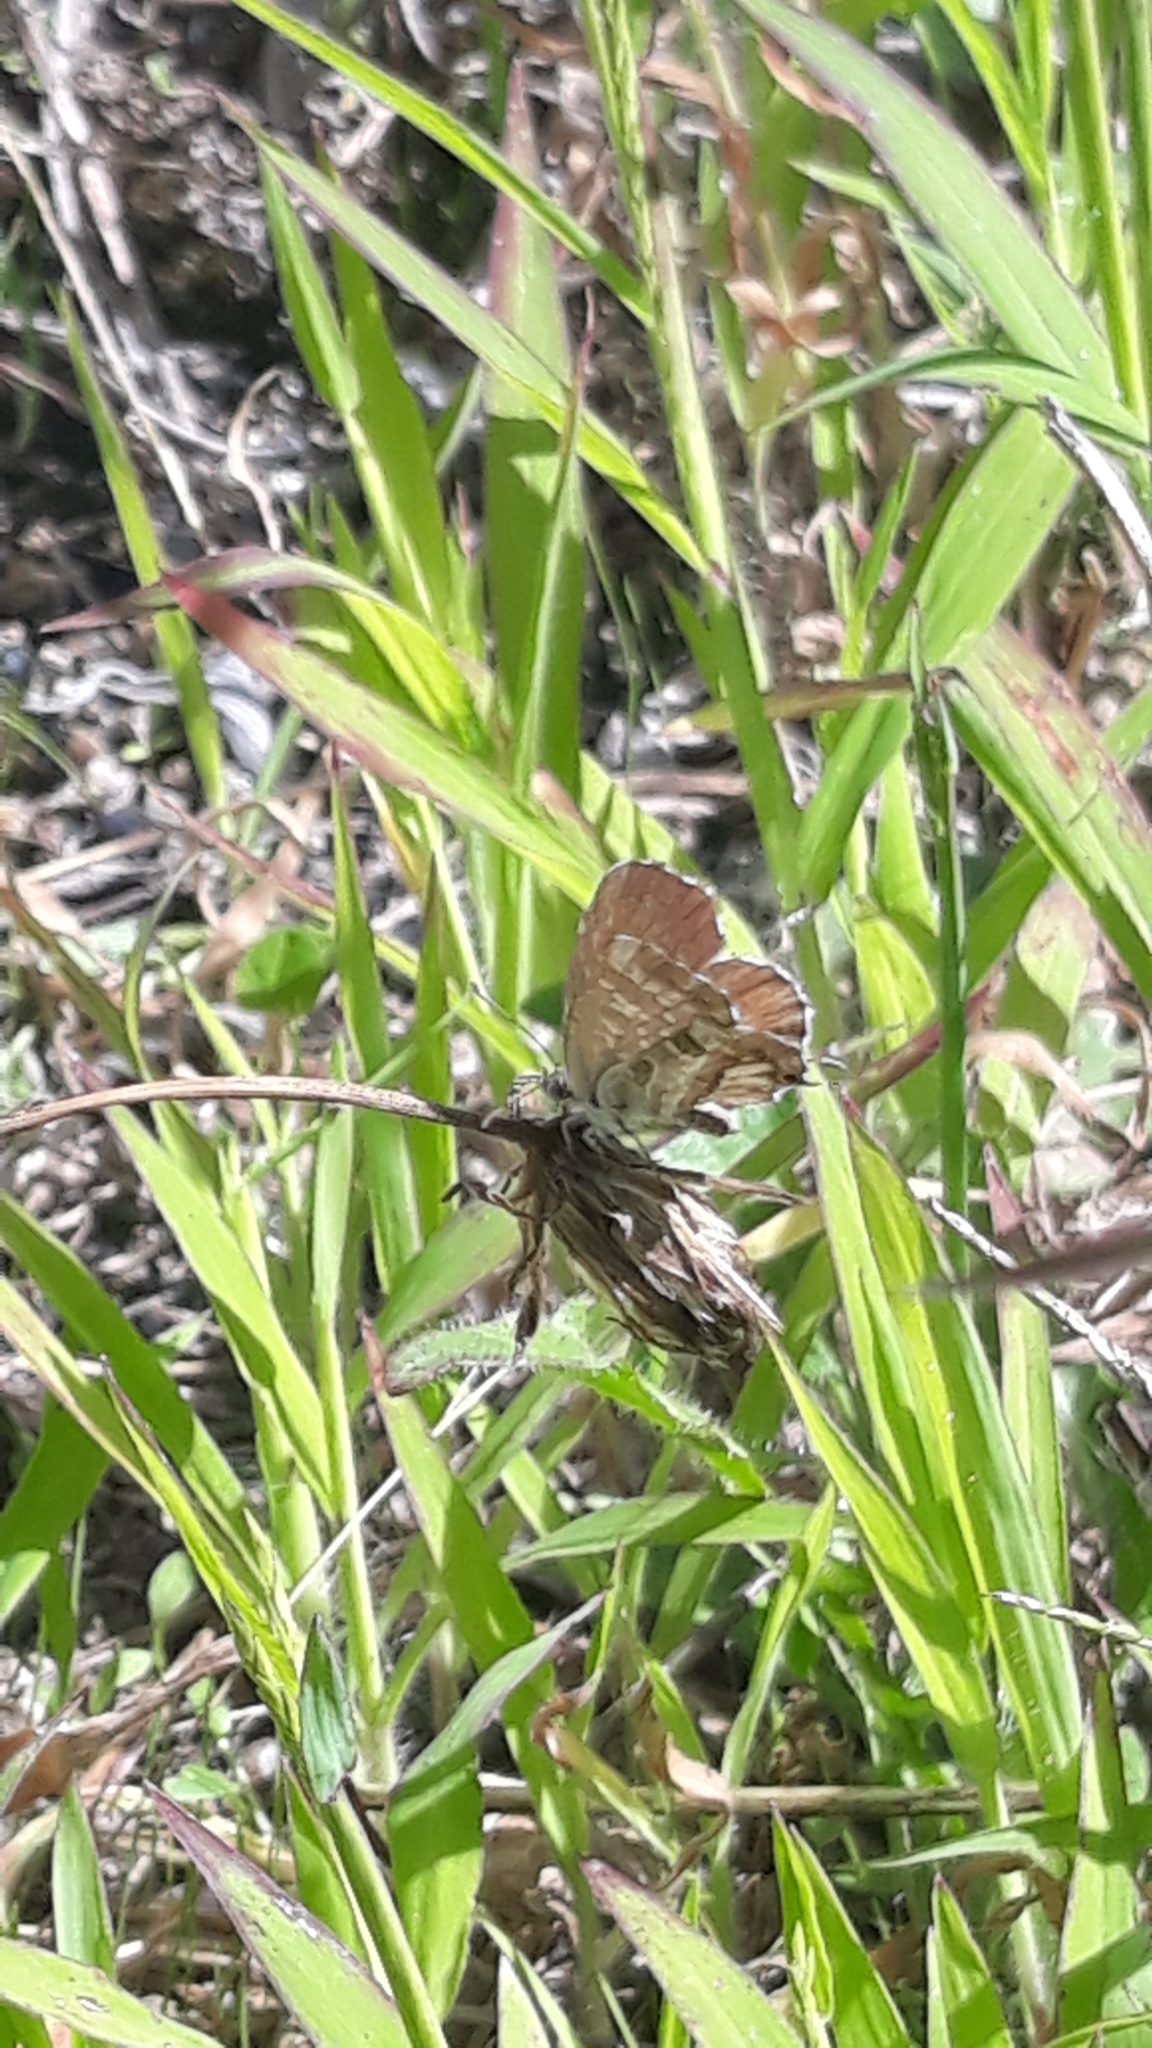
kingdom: Animalia
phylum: Arthropoda
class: Insecta
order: Lepidoptera
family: Lycaenidae
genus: Cacyreus
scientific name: Cacyreus marshalli
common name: Geranium bronze
